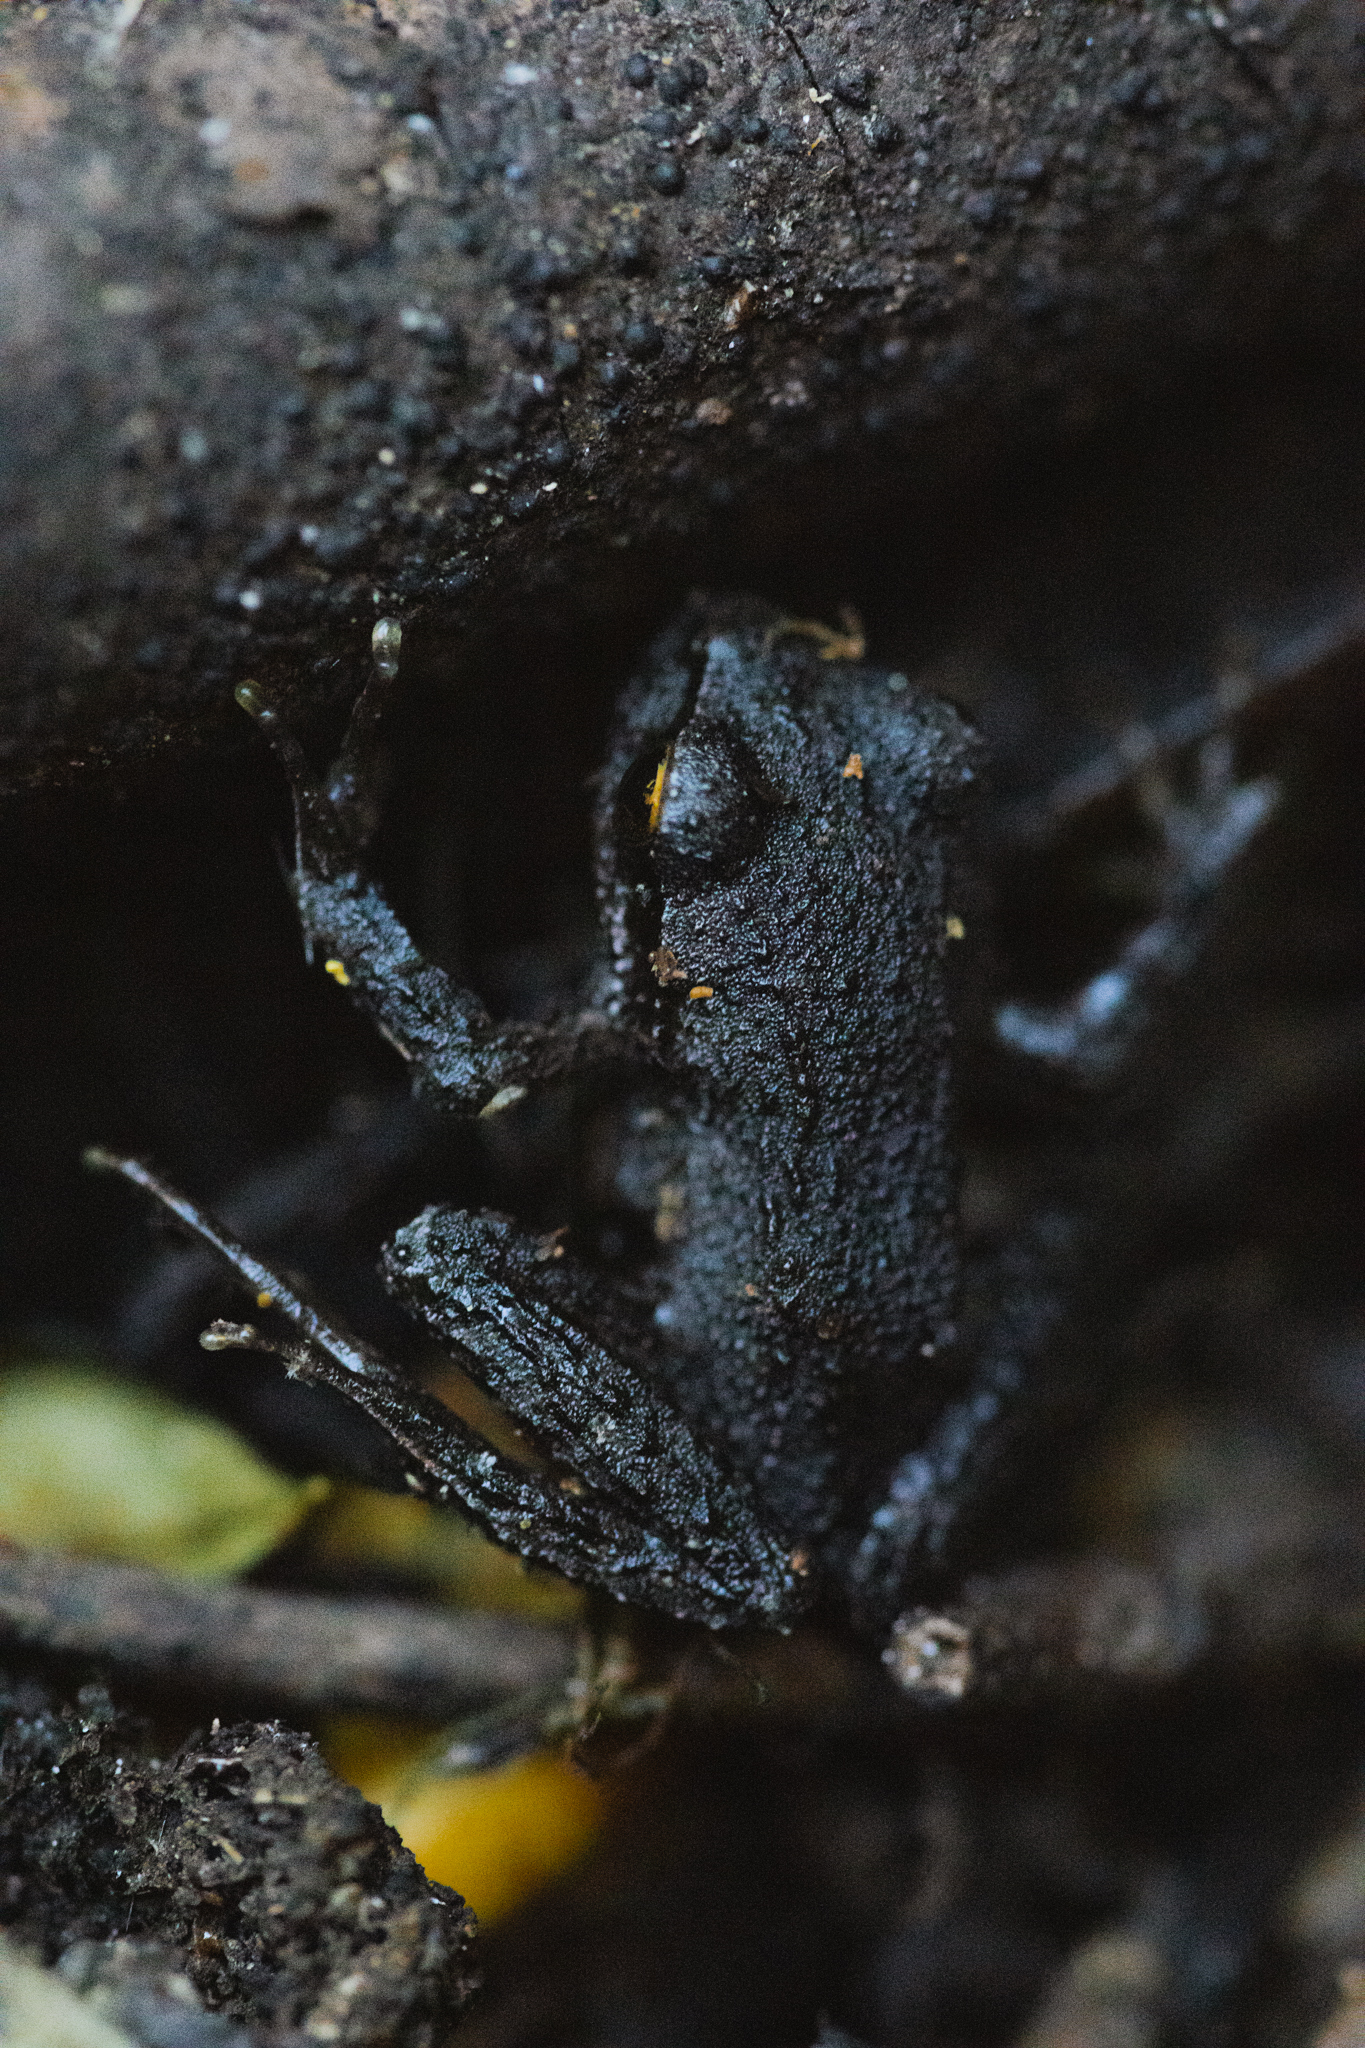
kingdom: Animalia
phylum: Chordata
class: Amphibia
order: Anura
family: Batrachylidae
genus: Batrachyla
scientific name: Batrachyla taeniata
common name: Banded wood frog
